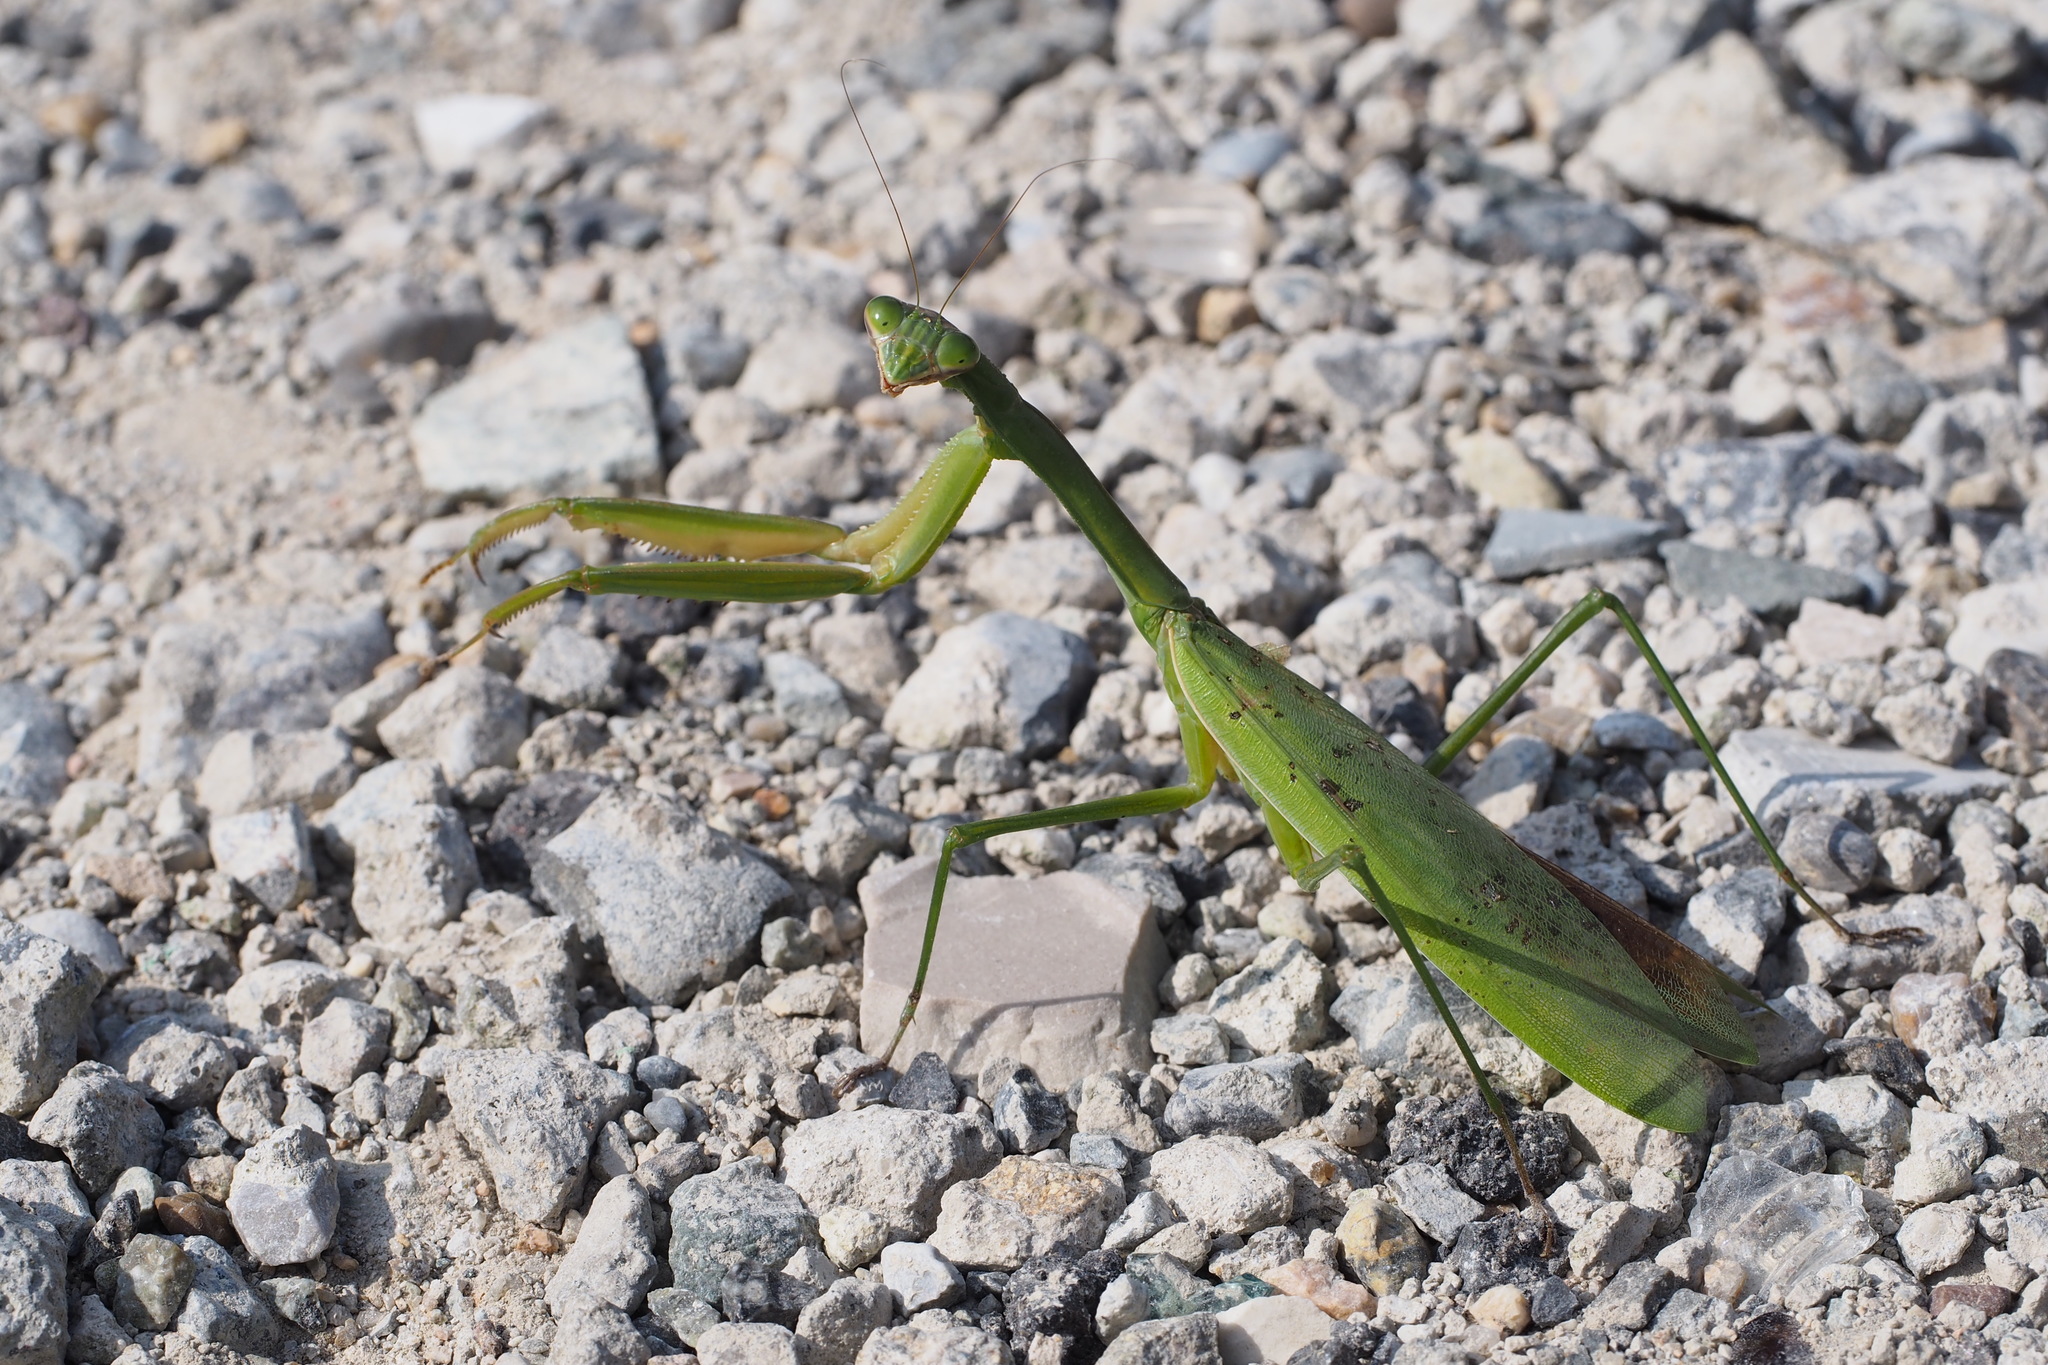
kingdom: Animalia
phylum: Arthropoda
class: Insecta
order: Mantodea
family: Mantidae
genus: Tenodera
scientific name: Tenodera sinensis
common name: Chinese mantis
